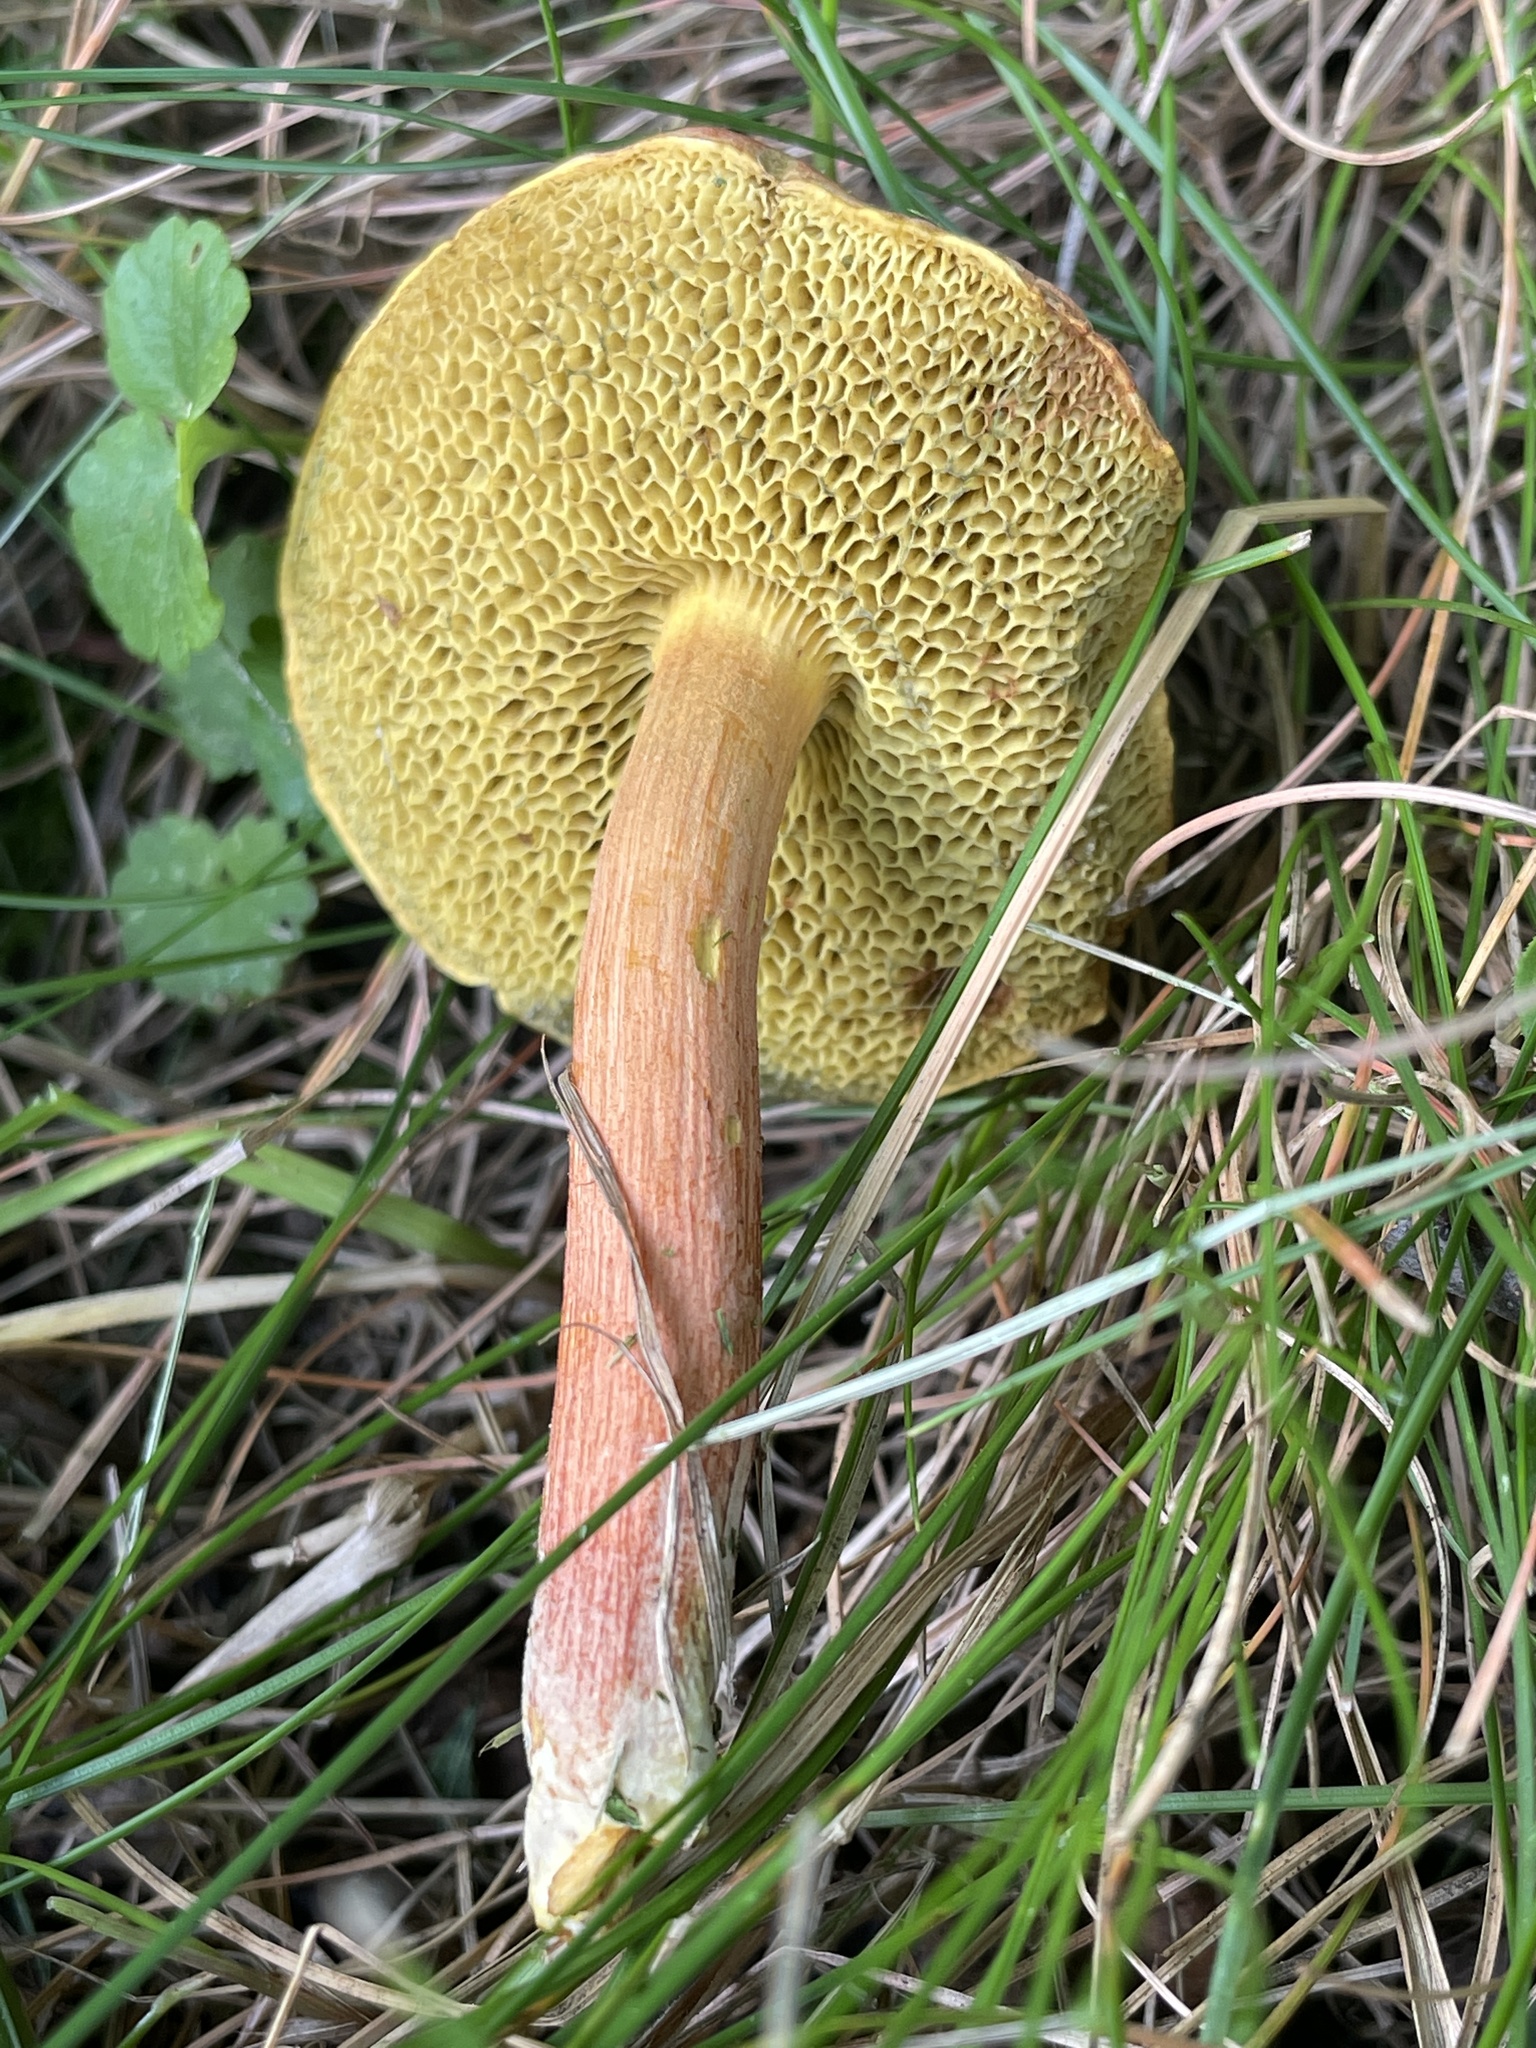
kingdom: Fungi
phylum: Basidiomycota
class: Agaricomycetes
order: Boletales
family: Boletaceae
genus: Hortiboletus
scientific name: Hortiboletus rubellus
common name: Ruby bolete
